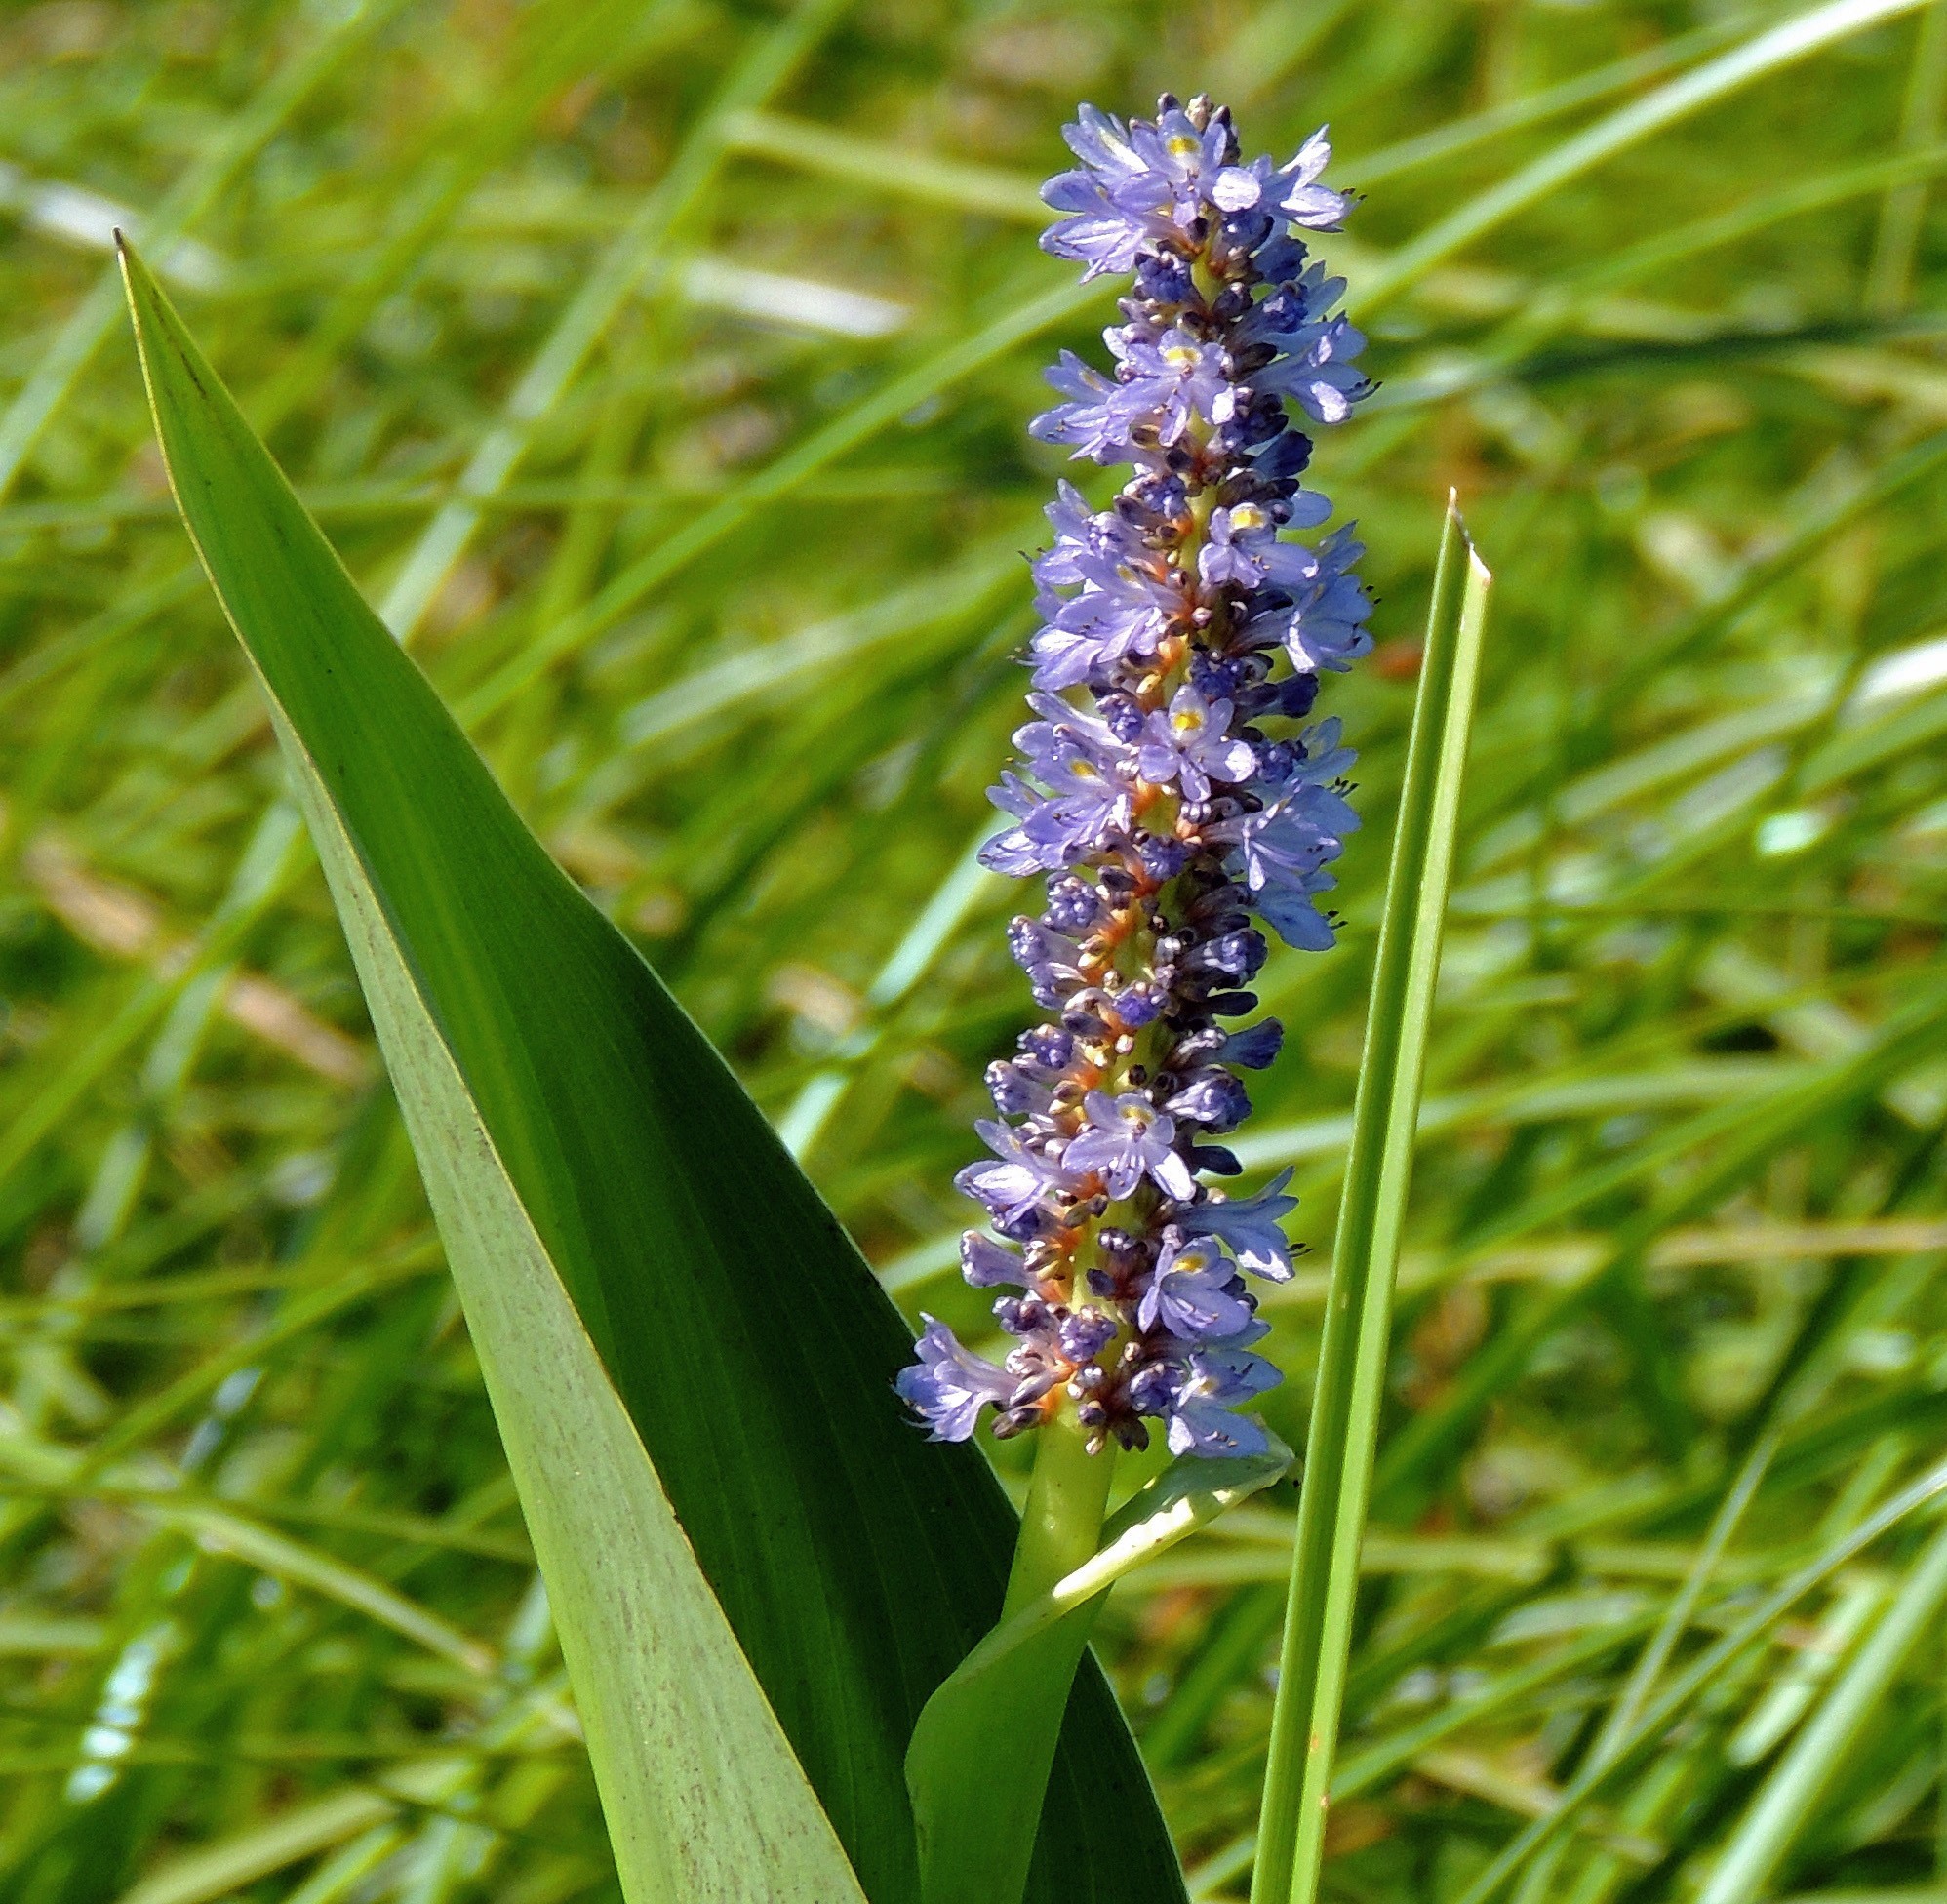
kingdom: Plantae
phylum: Tracheophyta
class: Liliopsida
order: Commelinales
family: Pontederiaceae
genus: Pontederia
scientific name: Pontederia cordata
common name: Pickerelweed
